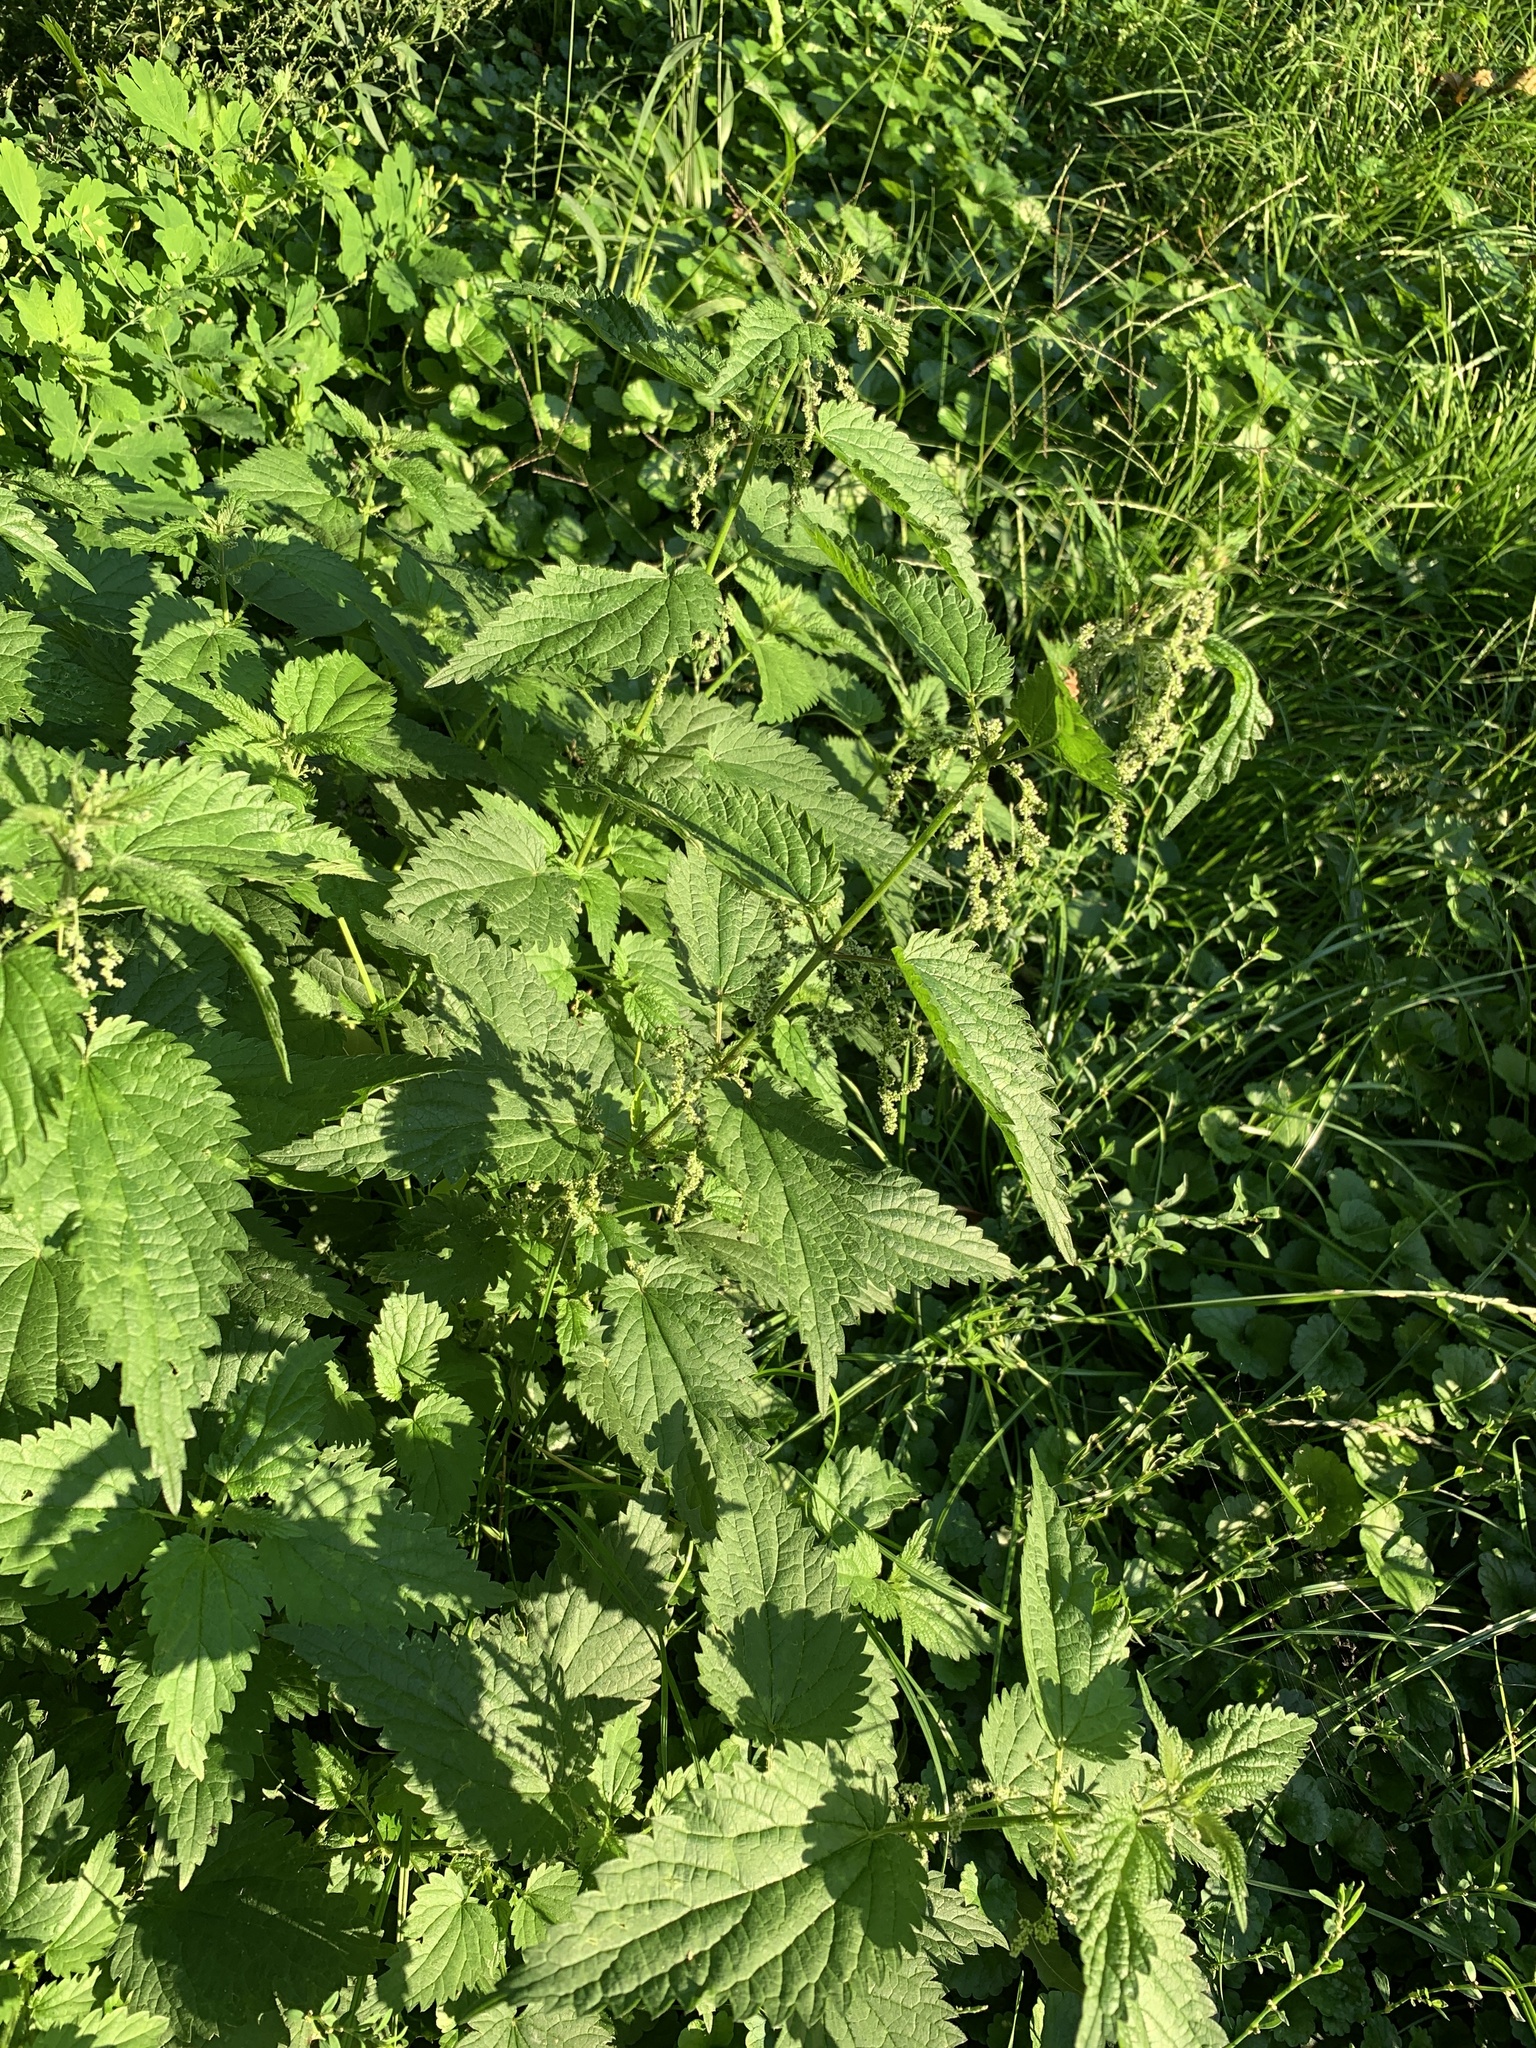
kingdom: Plantae
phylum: Tracheophyta
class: Magnoliopsida
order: Rosales
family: Urticaceae
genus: Urtica
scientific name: Urtica dioica
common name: Common nettle
